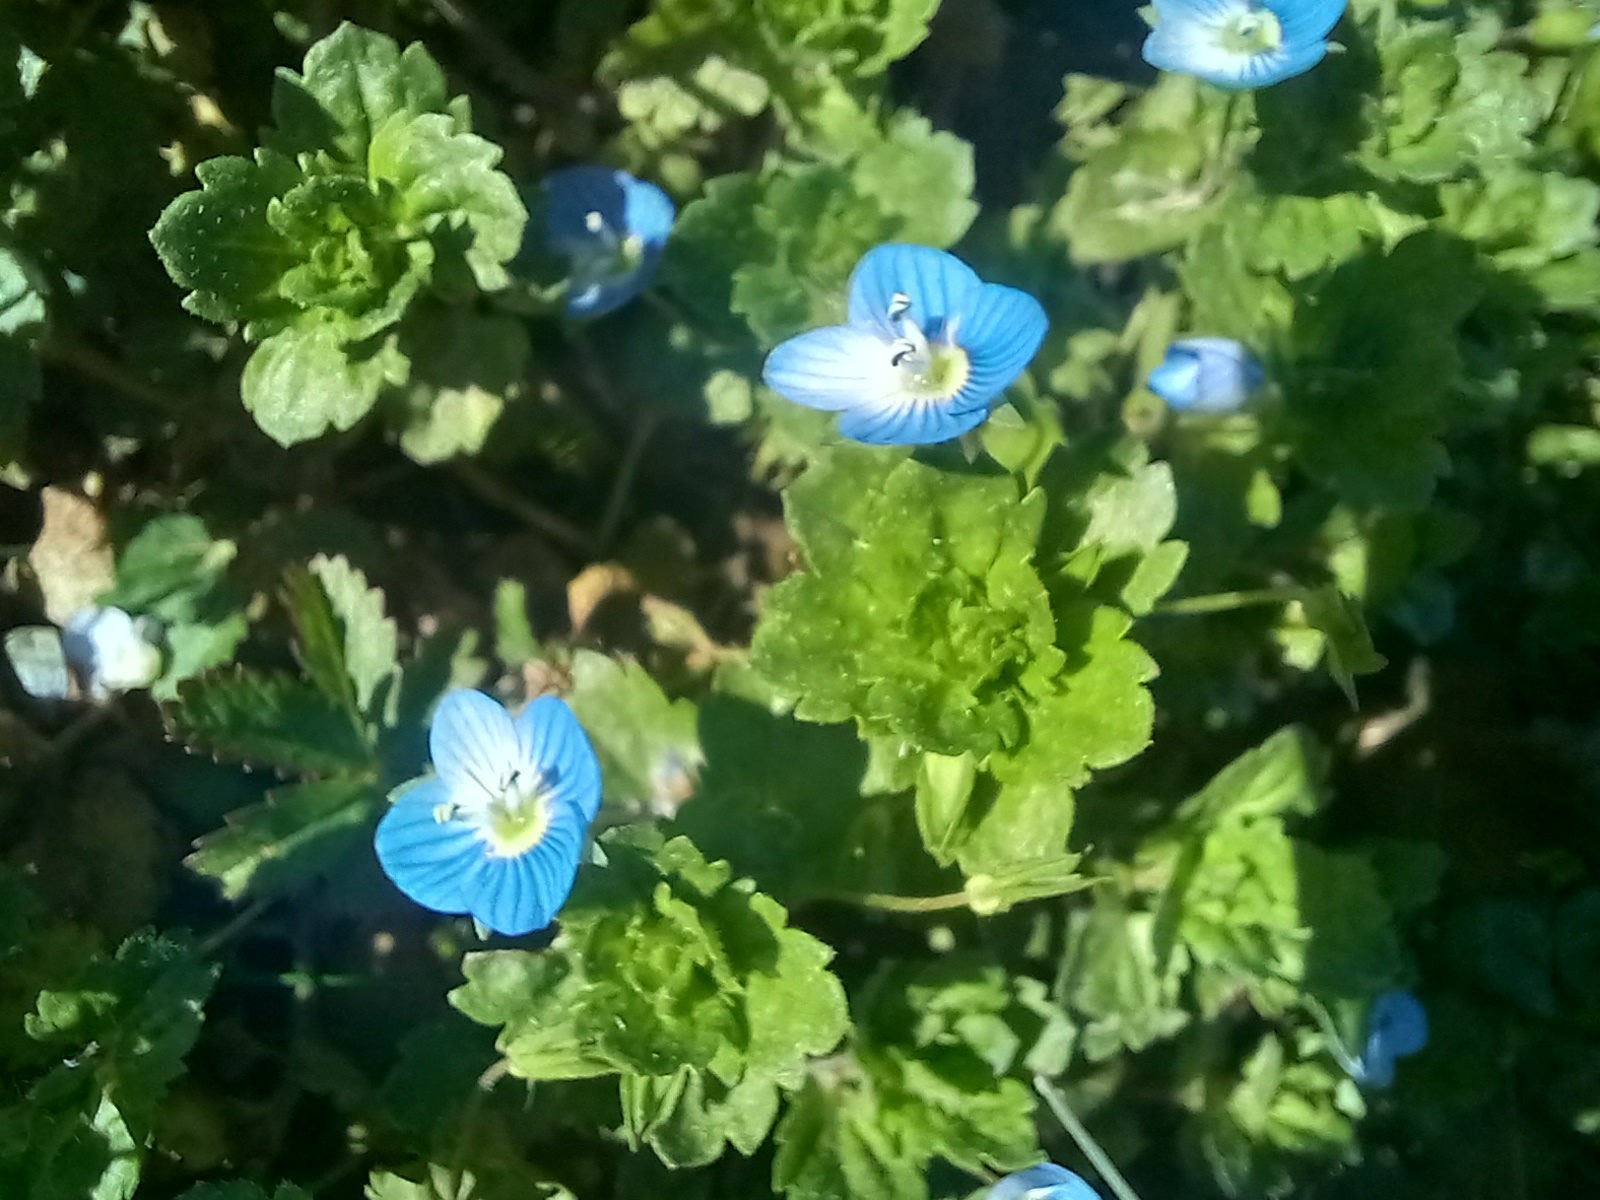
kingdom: Plantae
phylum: Tracheophyta
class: Magnoliopsida
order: Lamiales
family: Plantaginaceae
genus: Veronica
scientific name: Veronica persica
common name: Common field-speedwell
